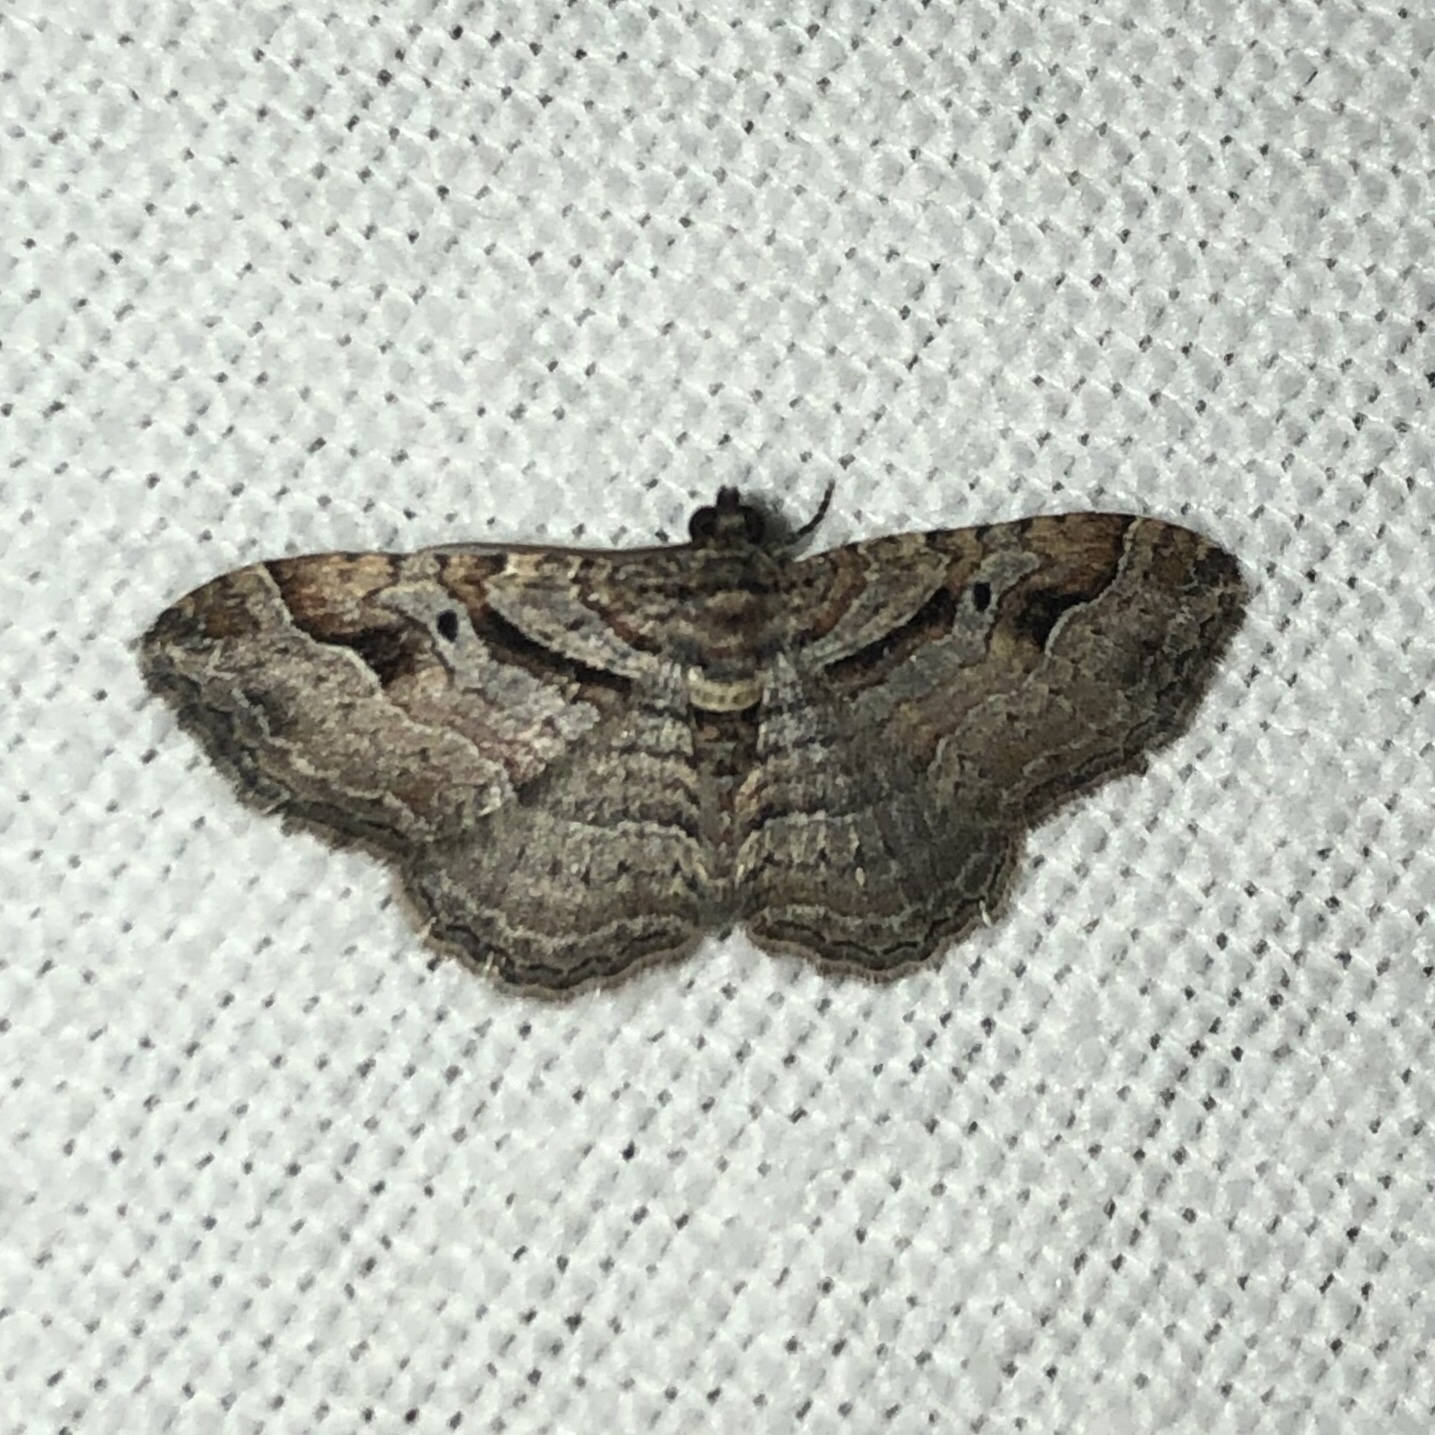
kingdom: Animalia
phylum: Arthropoda
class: Insecta
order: Lepidoptera
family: Geometridae
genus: Costaconvexa
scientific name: Costaconvexa centrostrigaria
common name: Bent-line carpet
